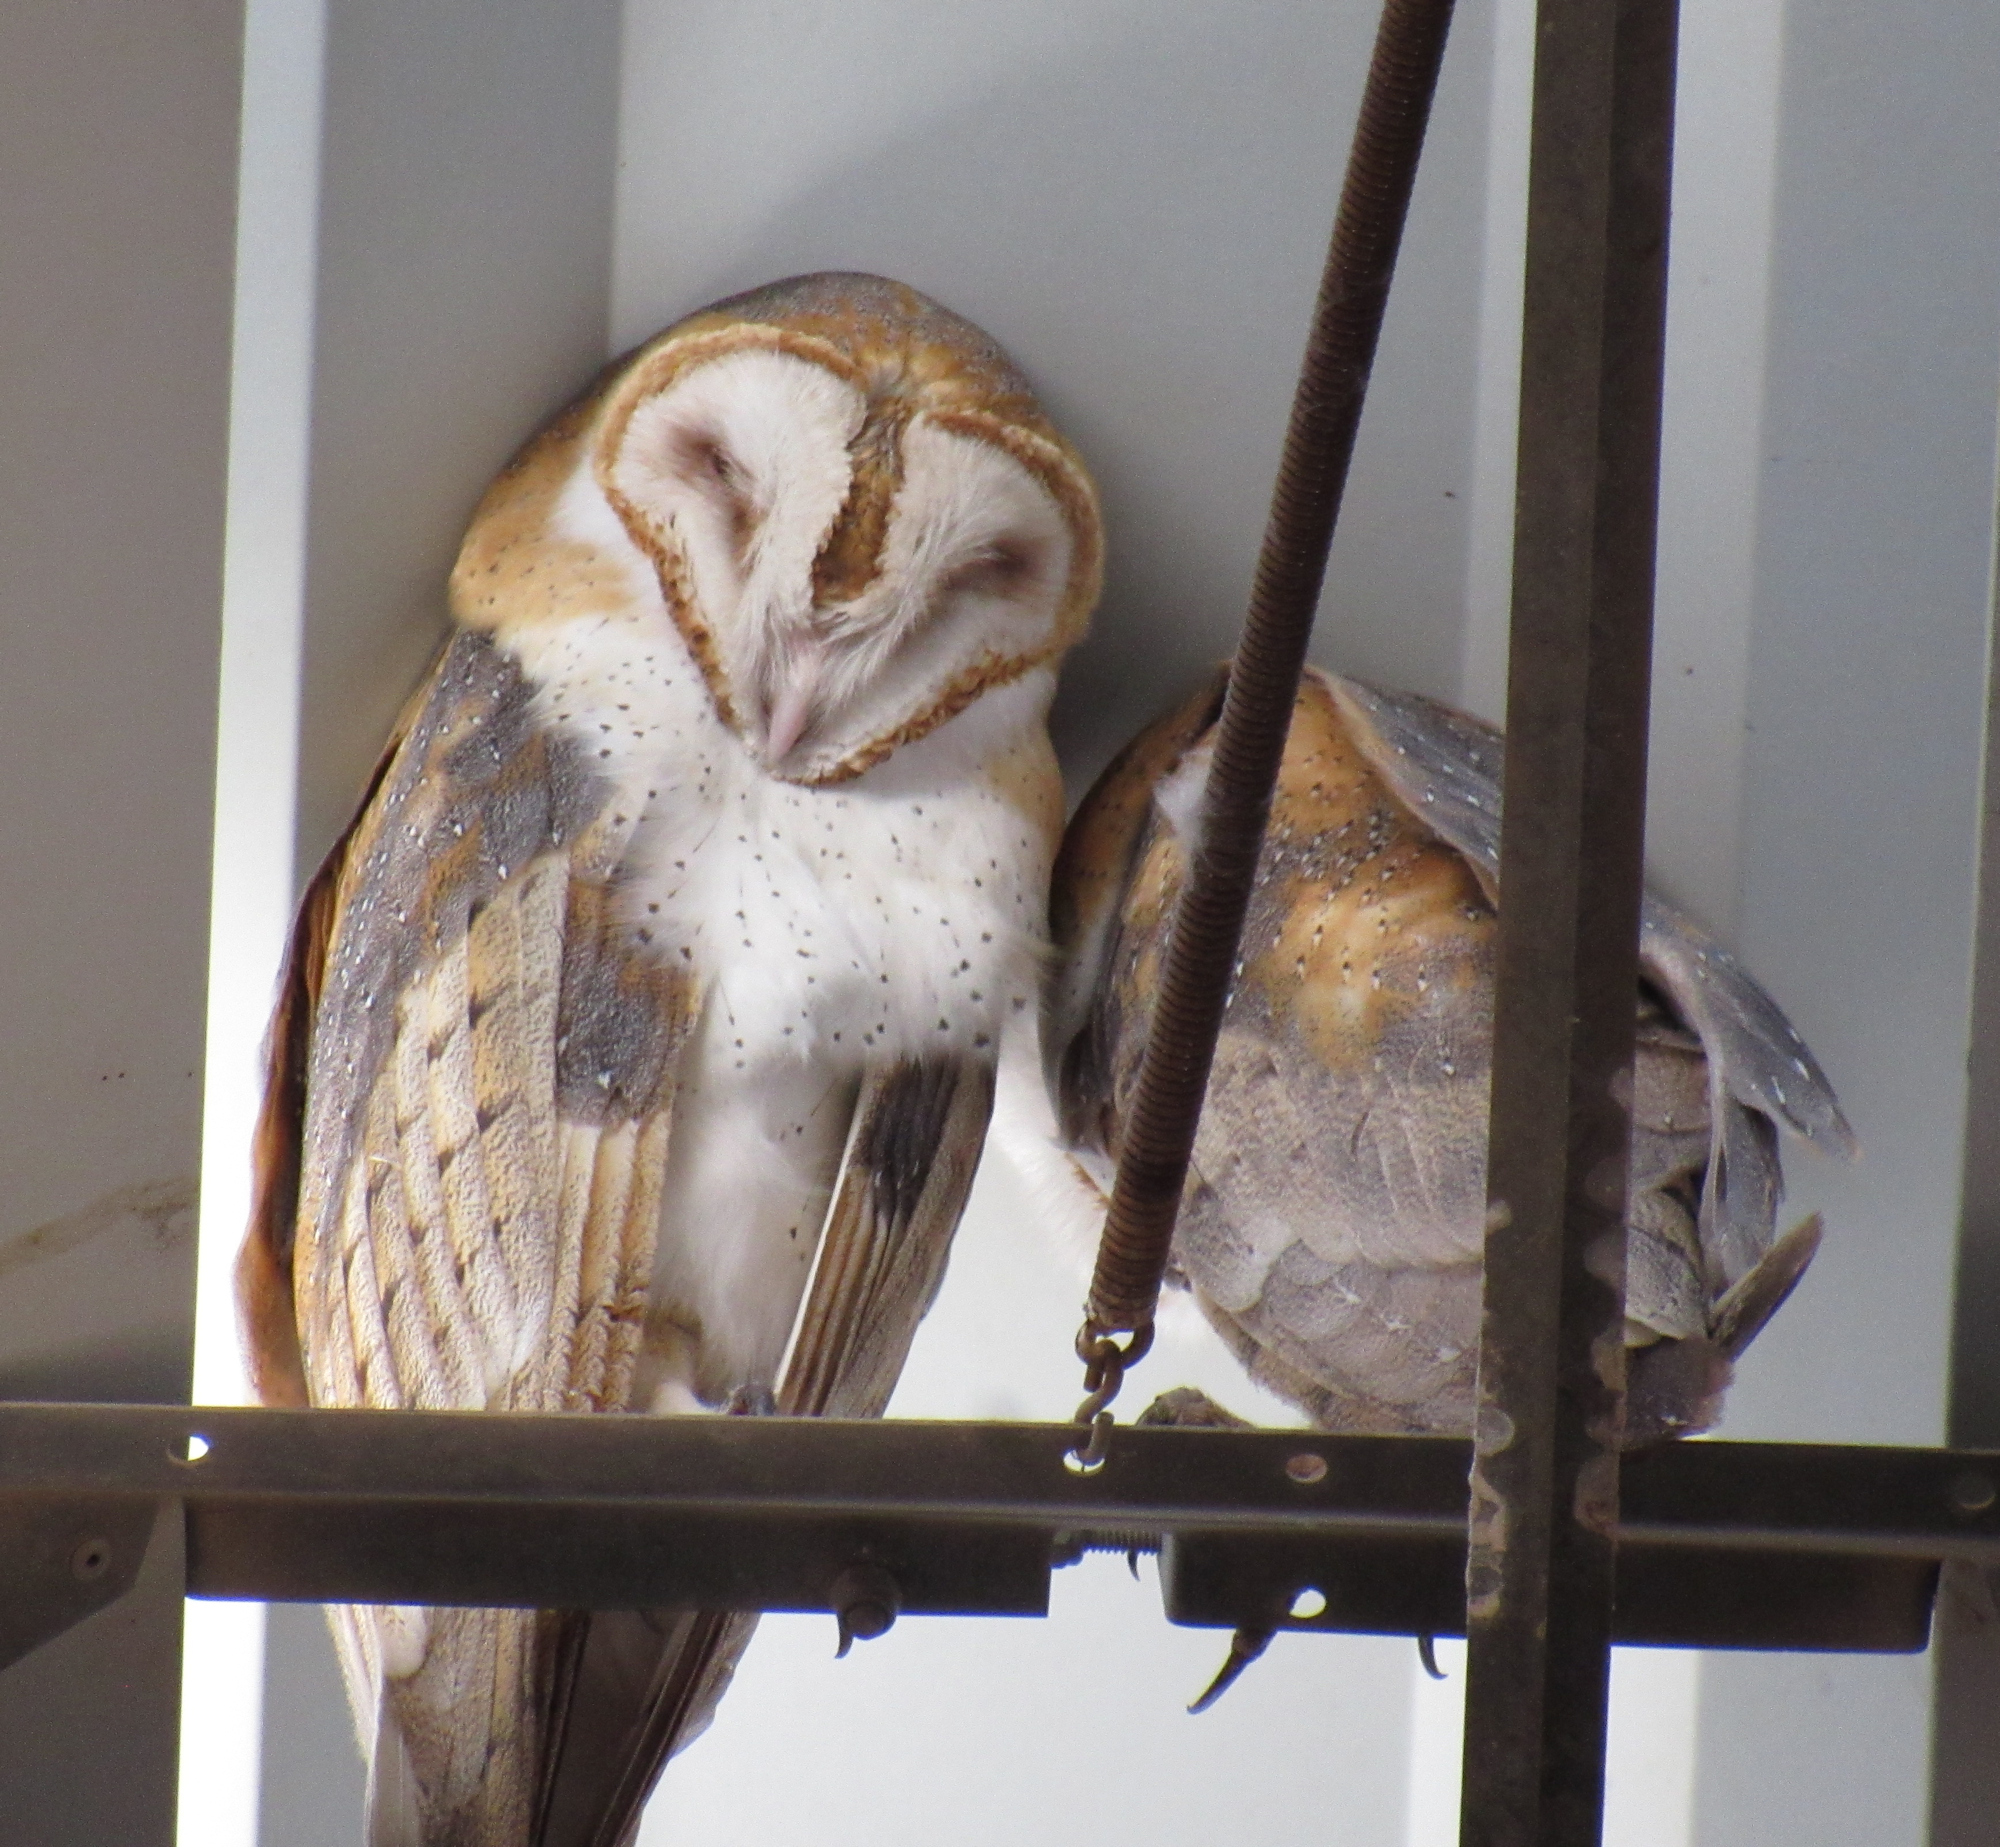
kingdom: Animalia
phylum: Chordata
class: Aves
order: Strigiformes
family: Tytonidae
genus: Tyto
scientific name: Tyto alba
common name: Barn owl
